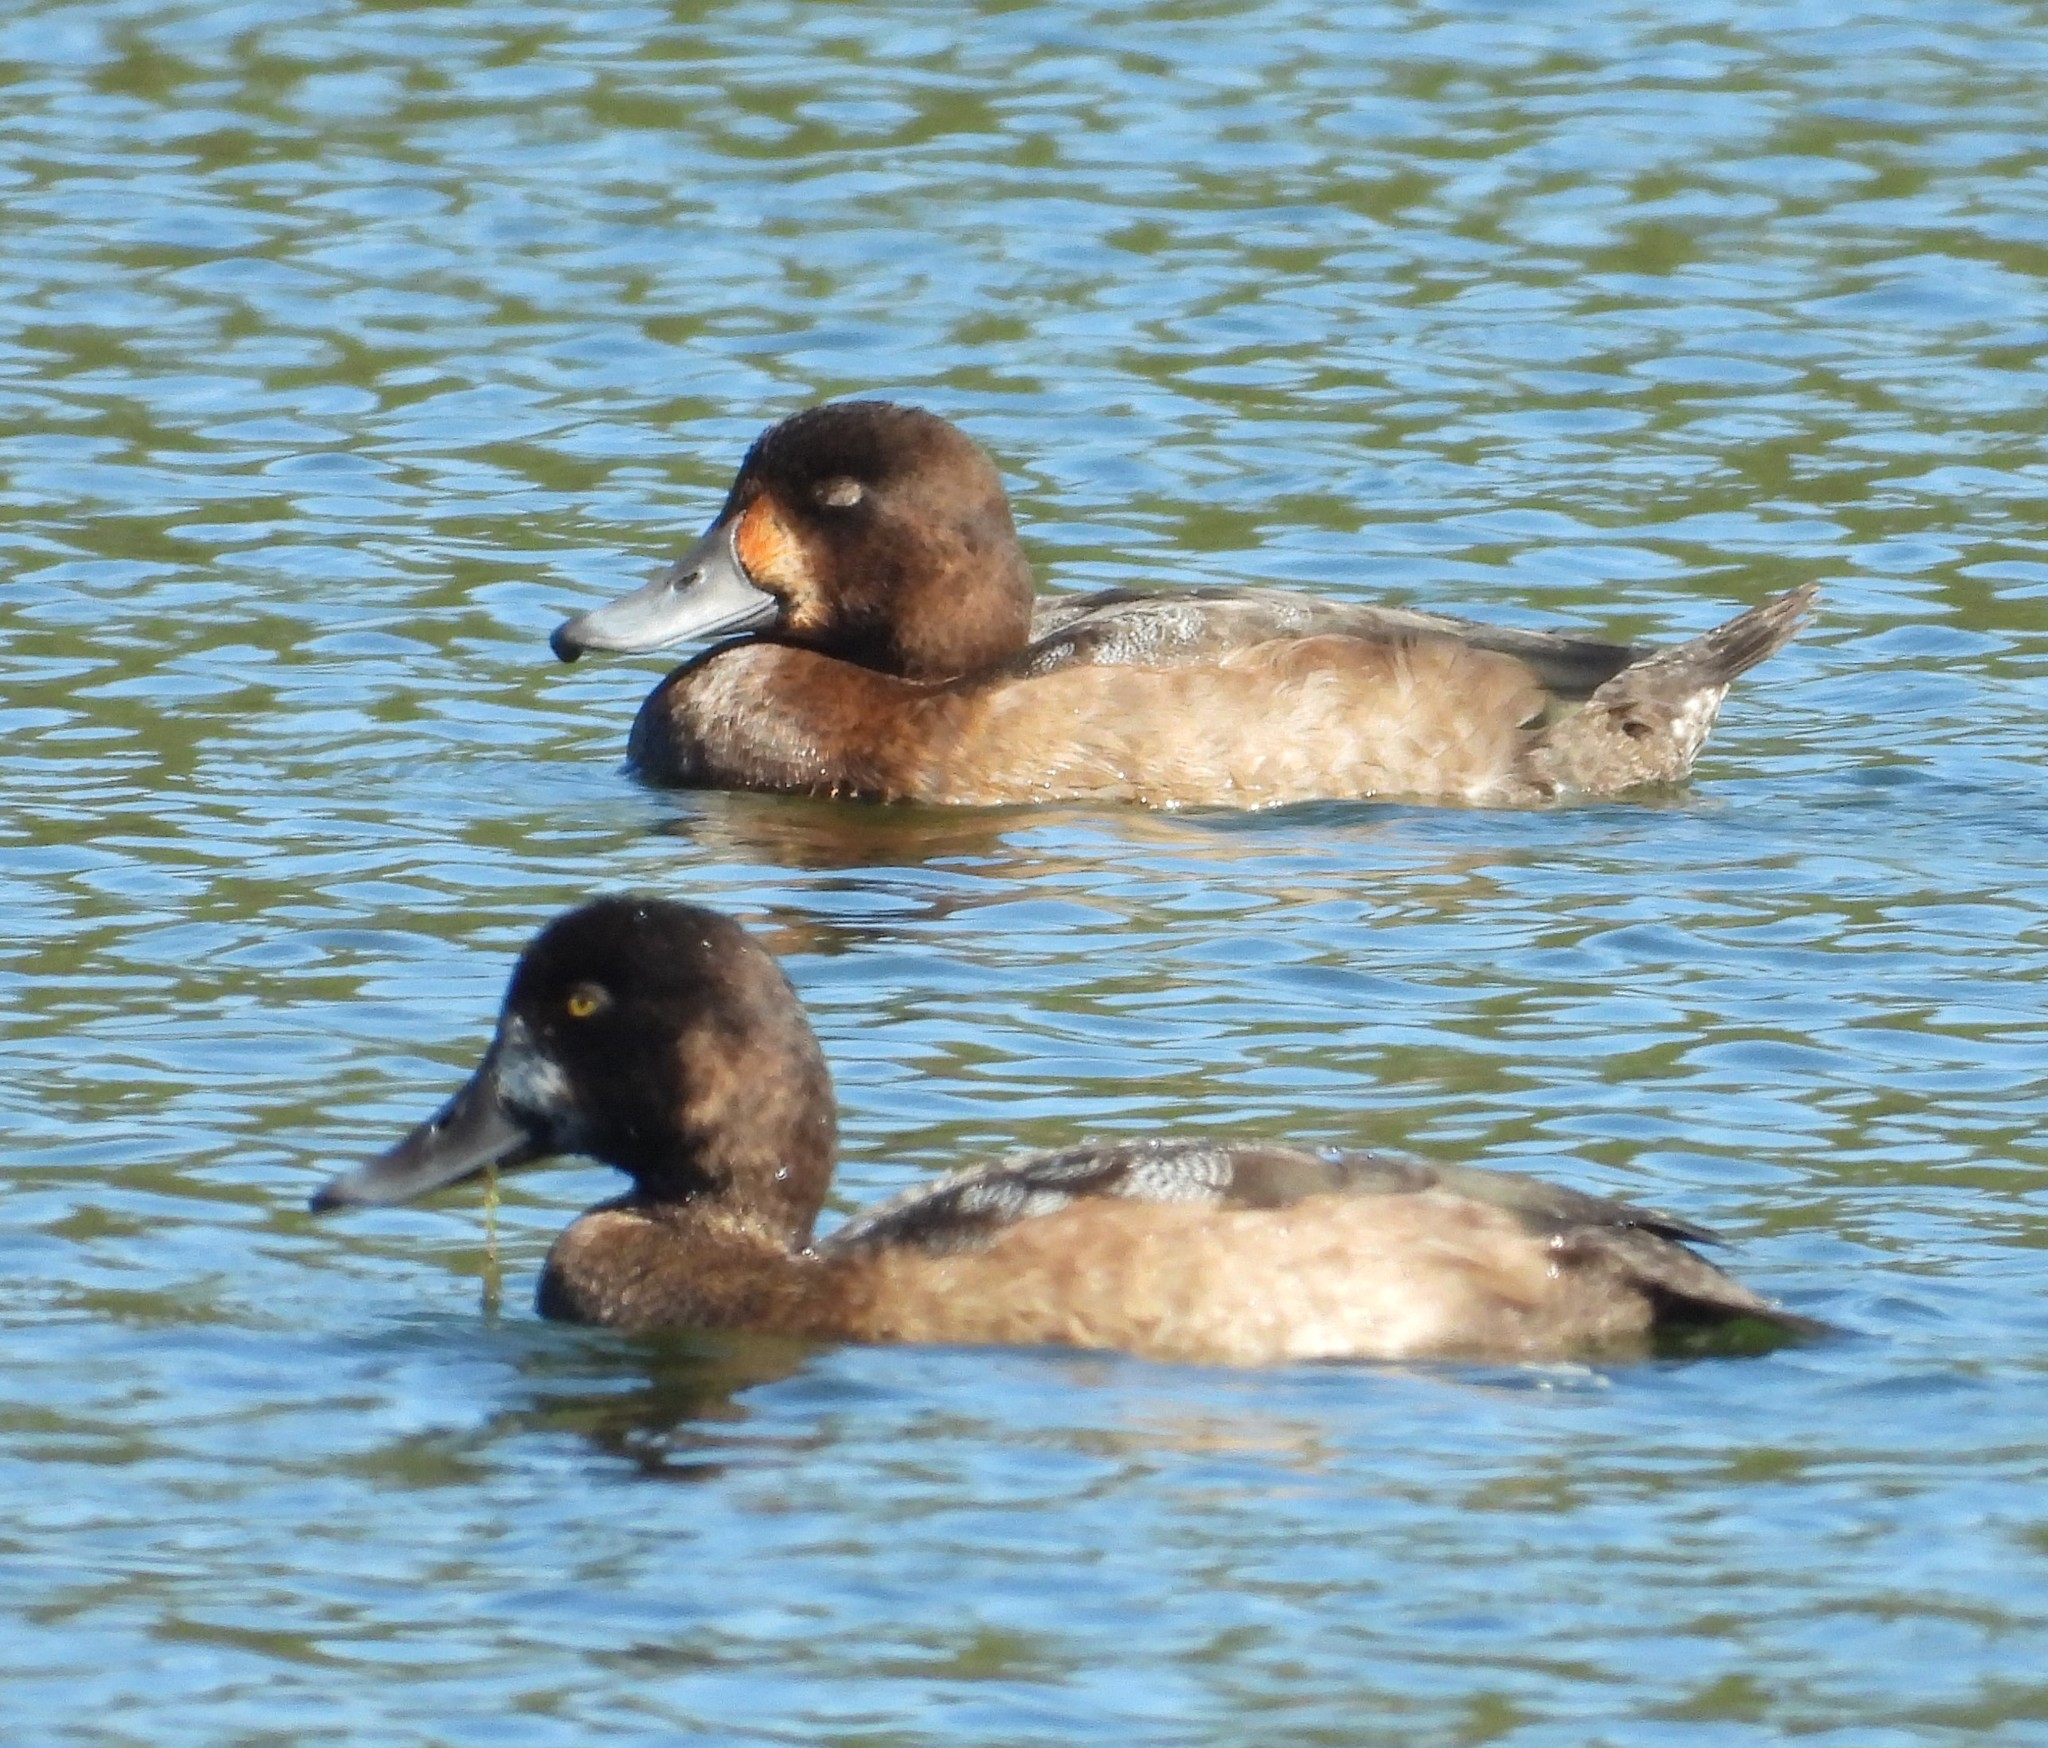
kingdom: Animalia
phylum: Chordata
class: Aves
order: Anseriformes
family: Anatidae
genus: Aythya
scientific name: Aythya marila
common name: Greater scaup
